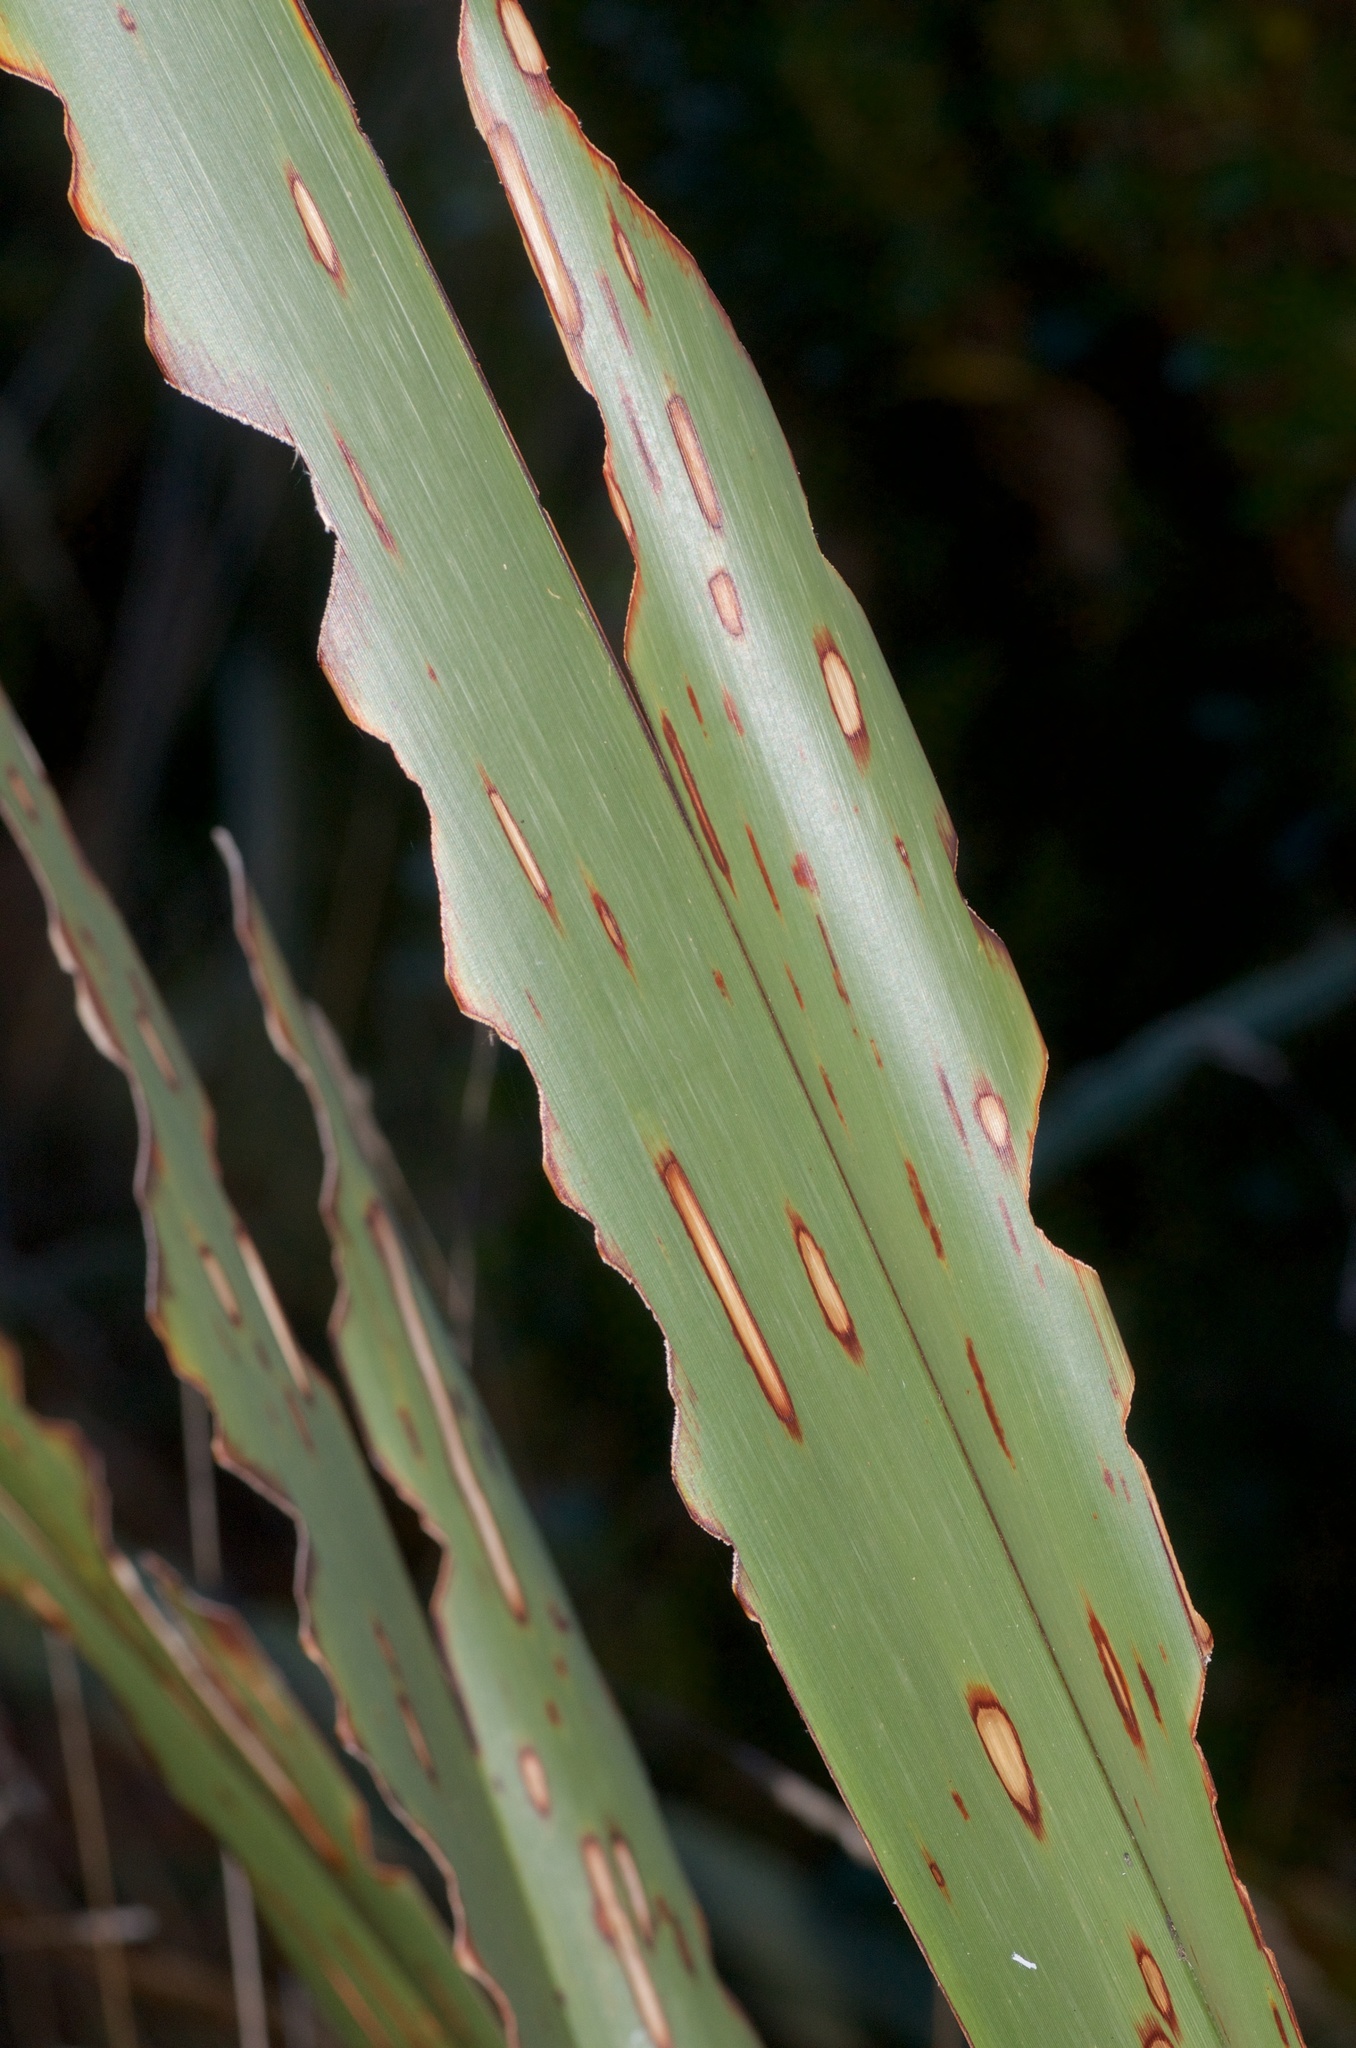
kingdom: Animalia
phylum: Arthropoda
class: Insecta
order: Lepidoptera
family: Geometridae
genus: Orthoclydon
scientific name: Orthoclydon praefectata
